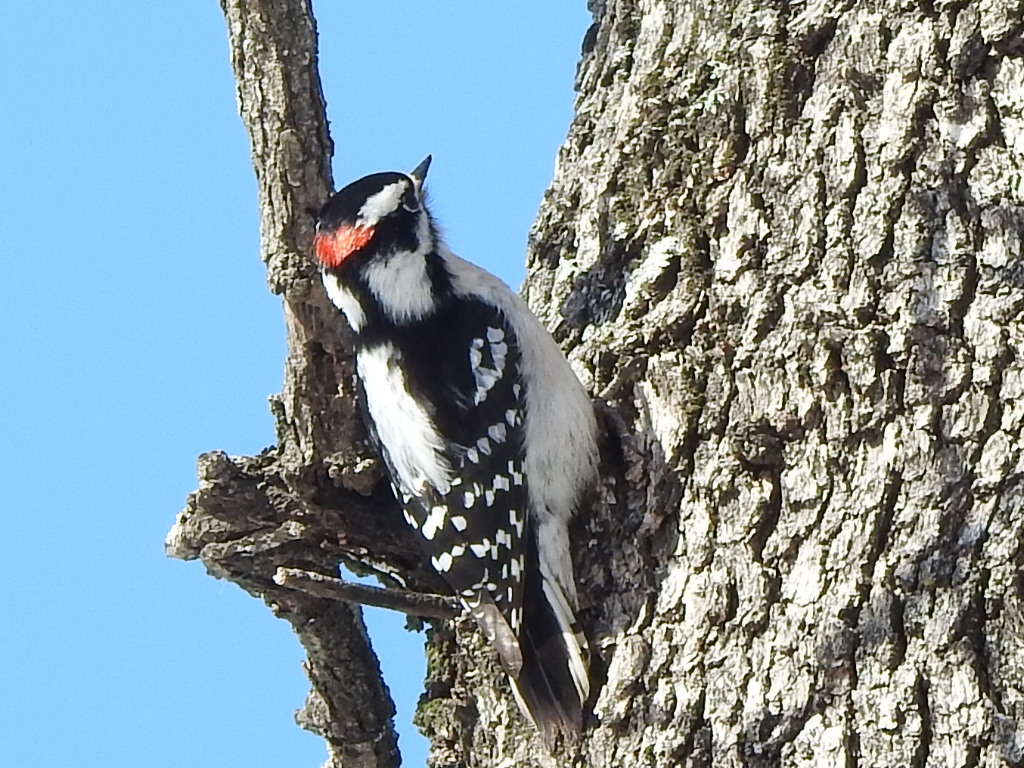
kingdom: Animalia
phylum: Chordata
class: Aves
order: Piciformes
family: Picidae
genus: Dryobates
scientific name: Dryobates pubescens
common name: Downy woodpecker
